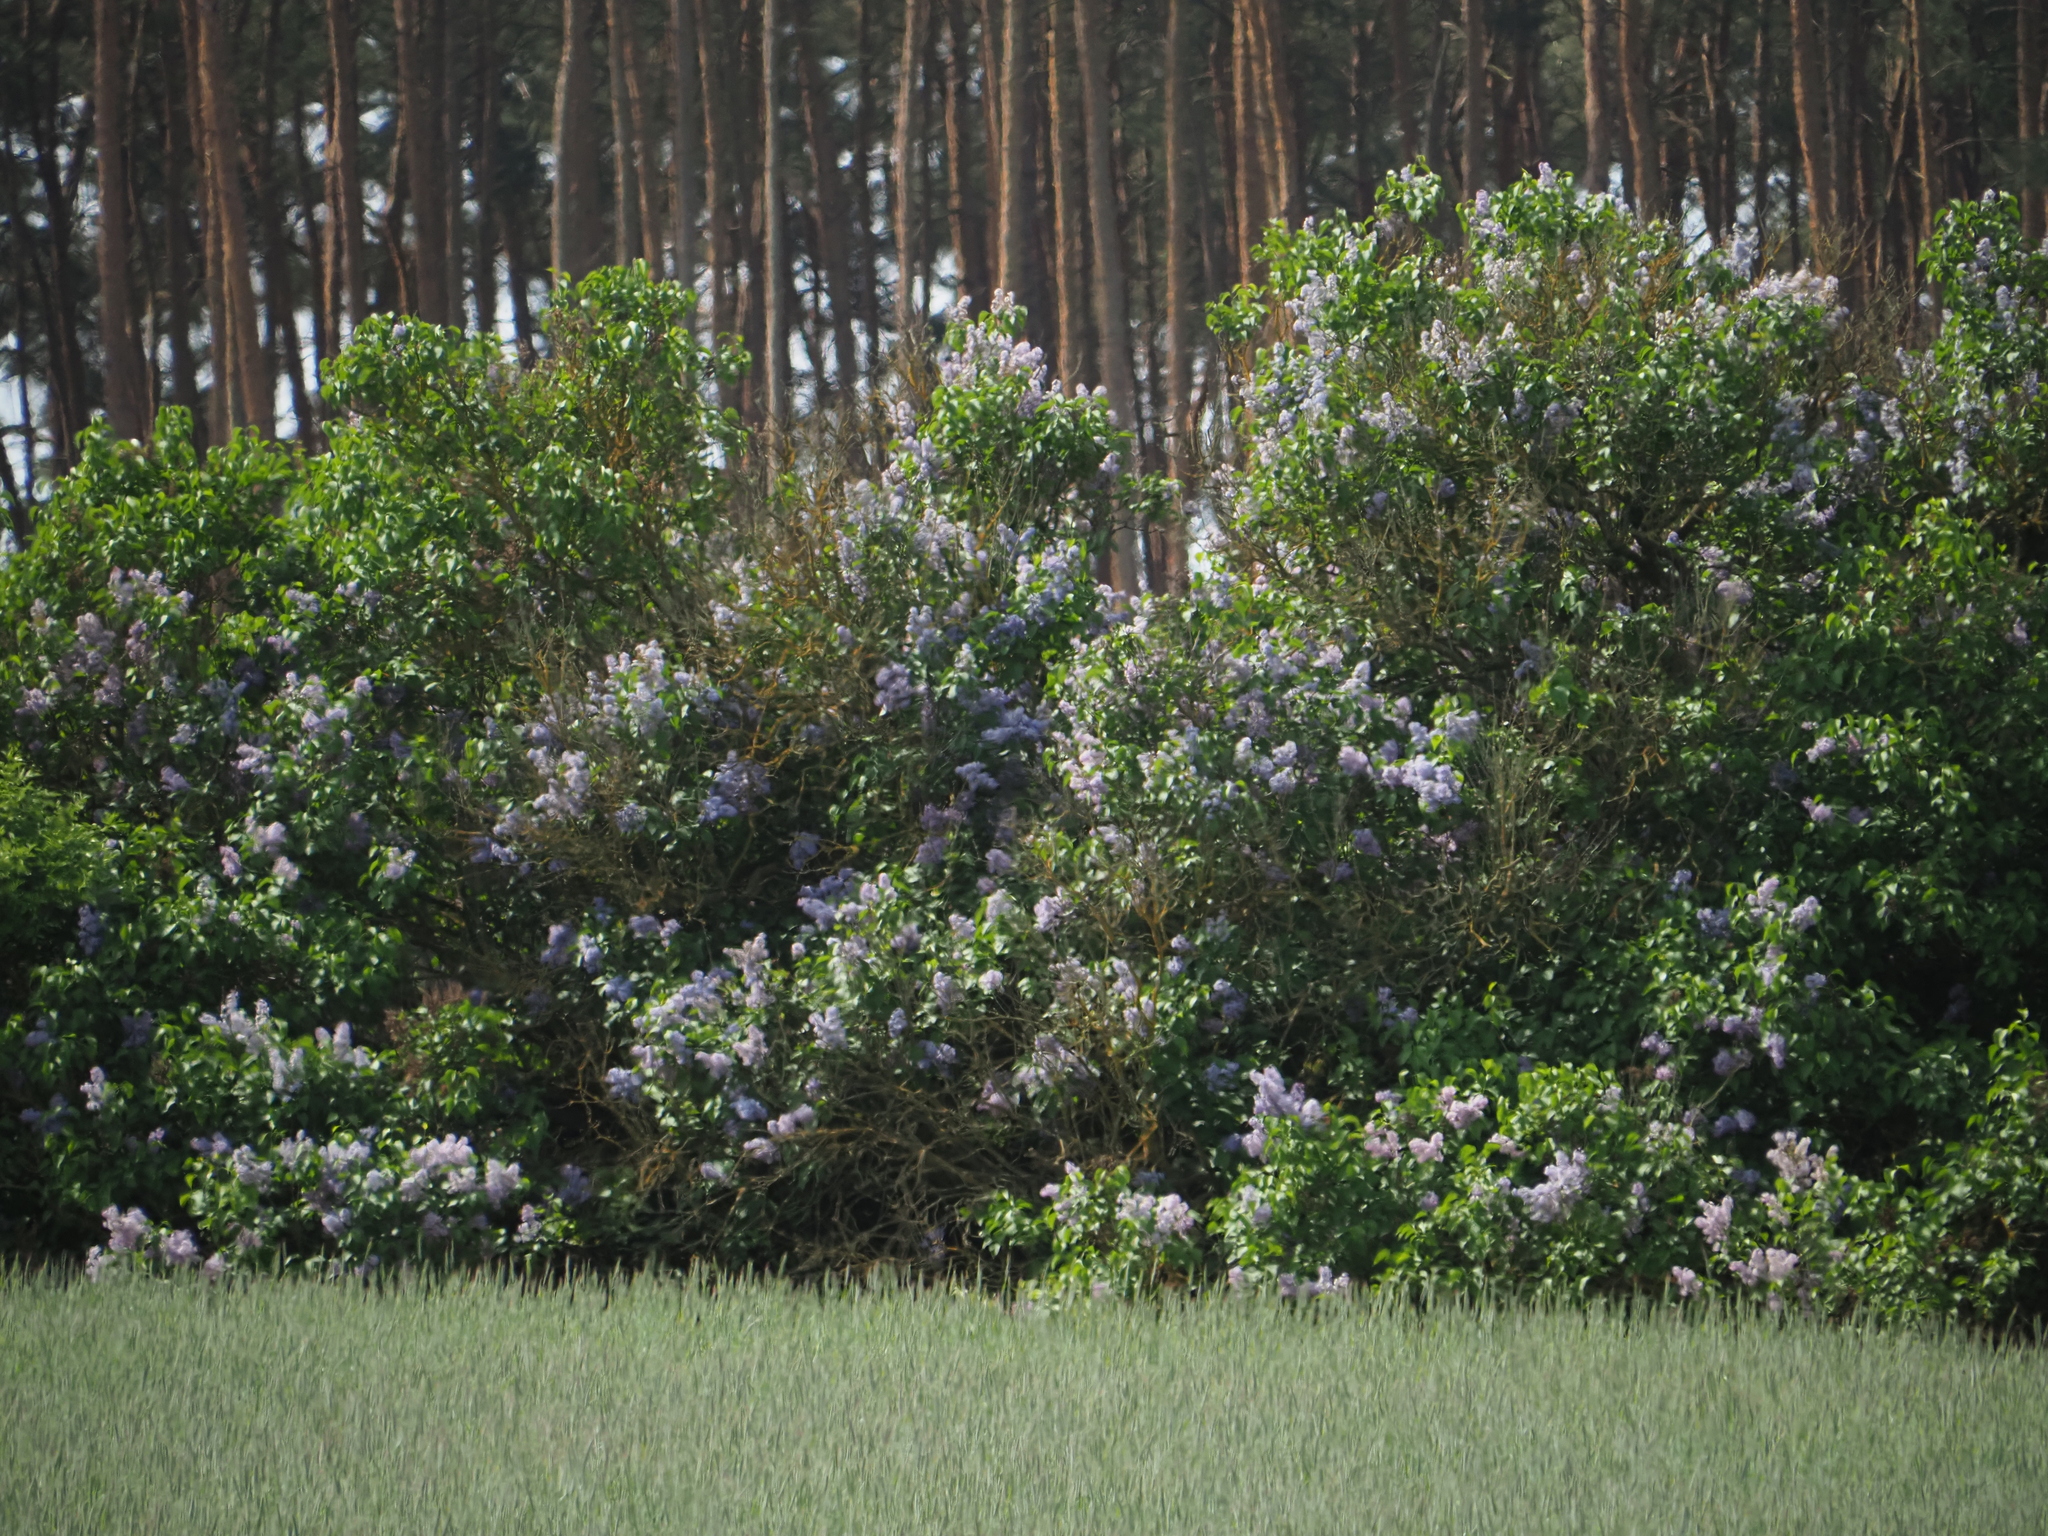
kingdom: Plantae
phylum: Tracheophyta
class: Magnoliopsida
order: Lamiales
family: Oleaceae
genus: Syringa
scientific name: Syringa vulgaris
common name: Common lilac
